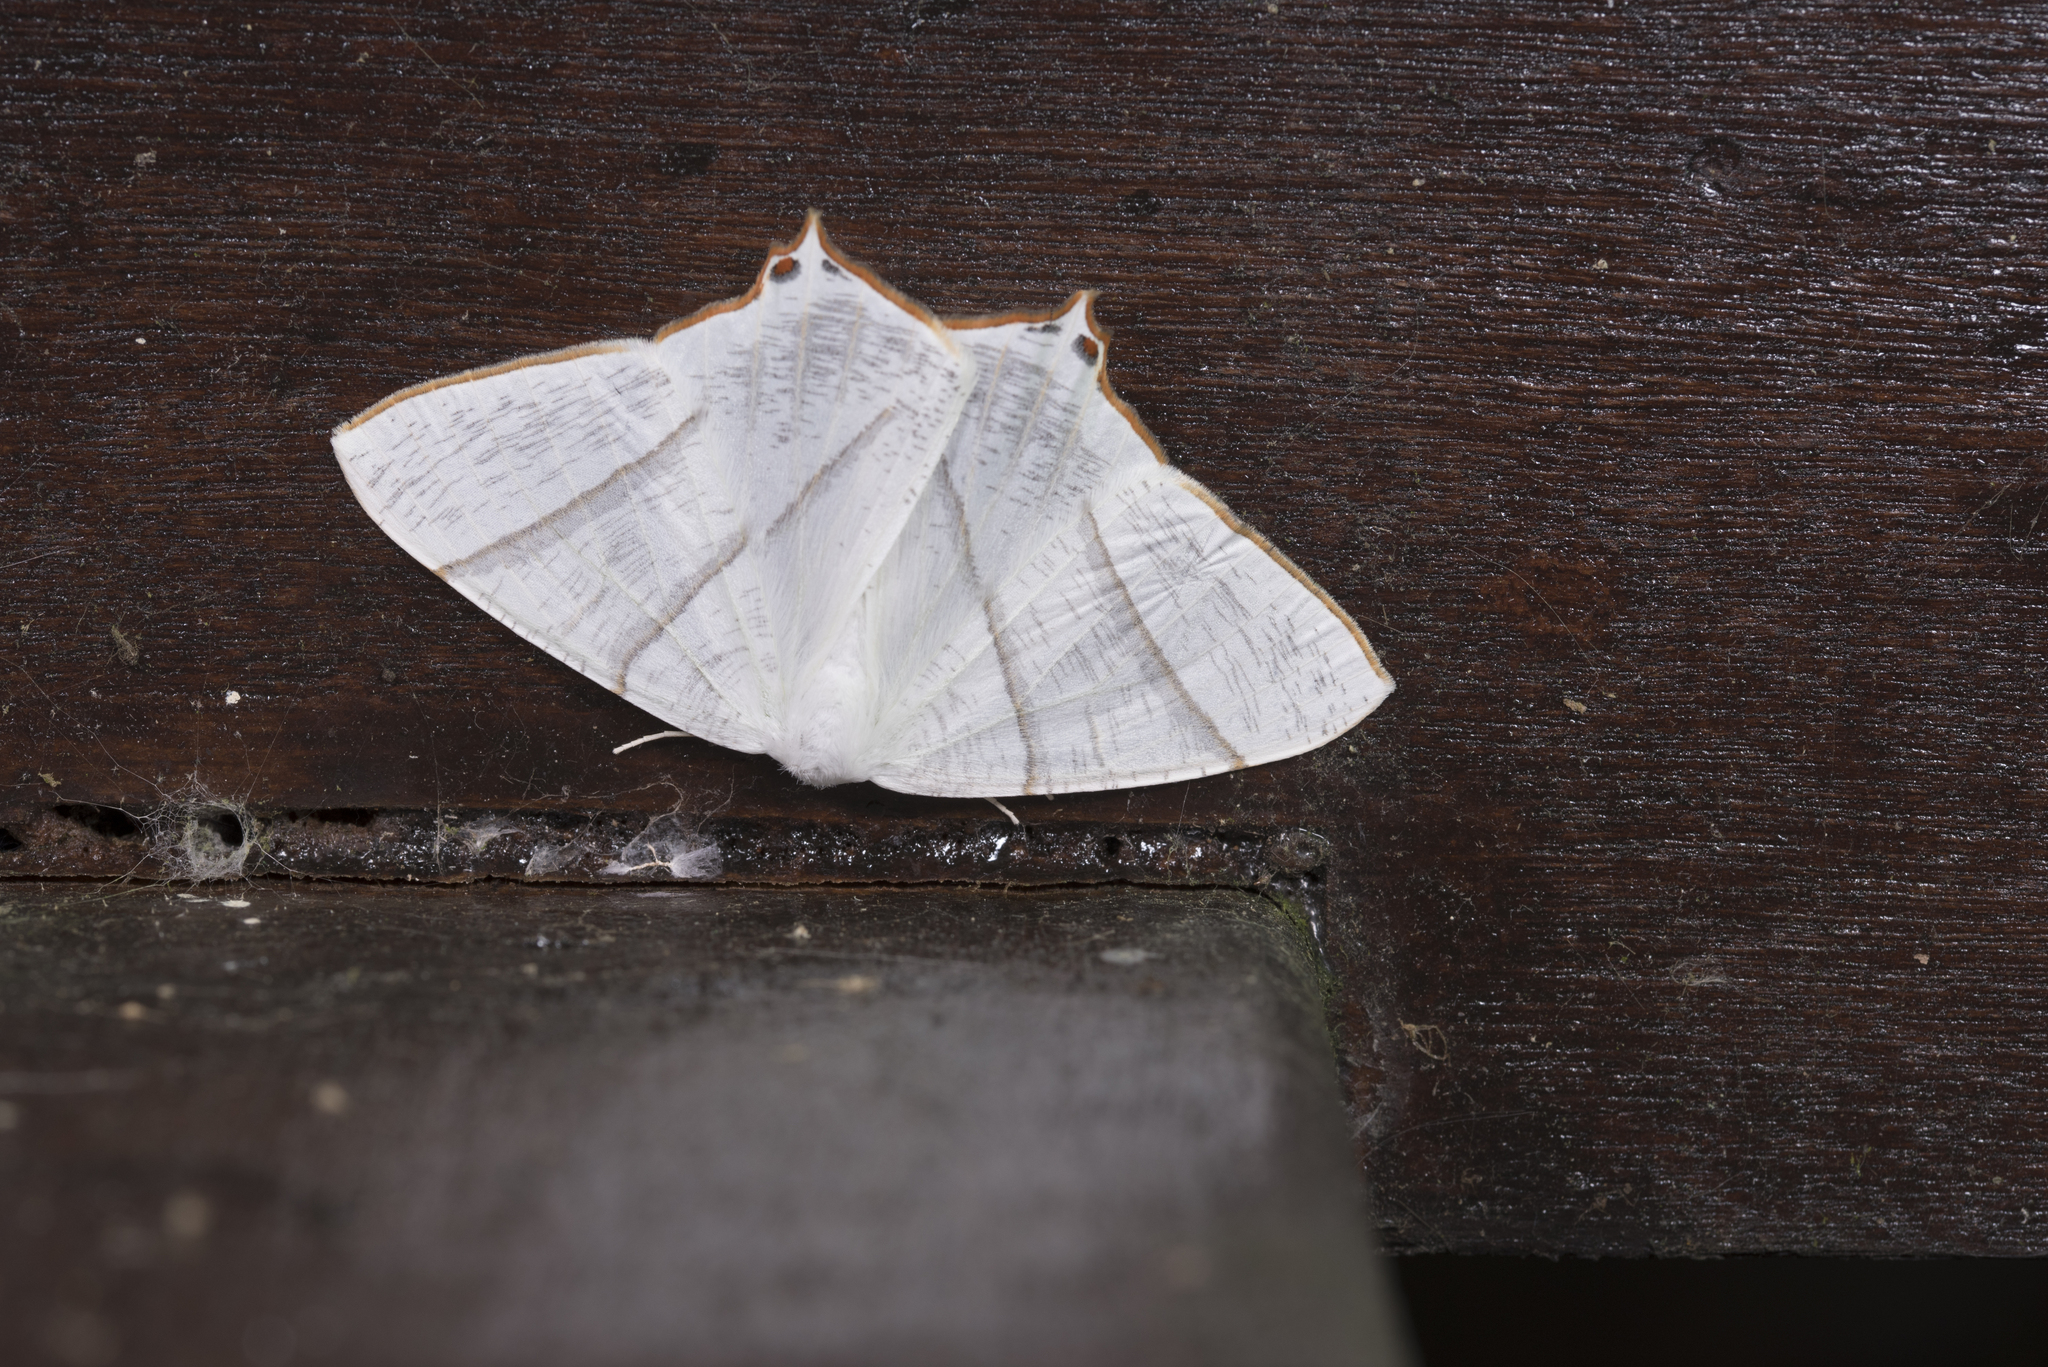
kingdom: Animalia
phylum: Arthropoda
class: Insecta
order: Lepidoptera
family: Geometridae
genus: Ourapteryx
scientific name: Ourapteryx similaria
